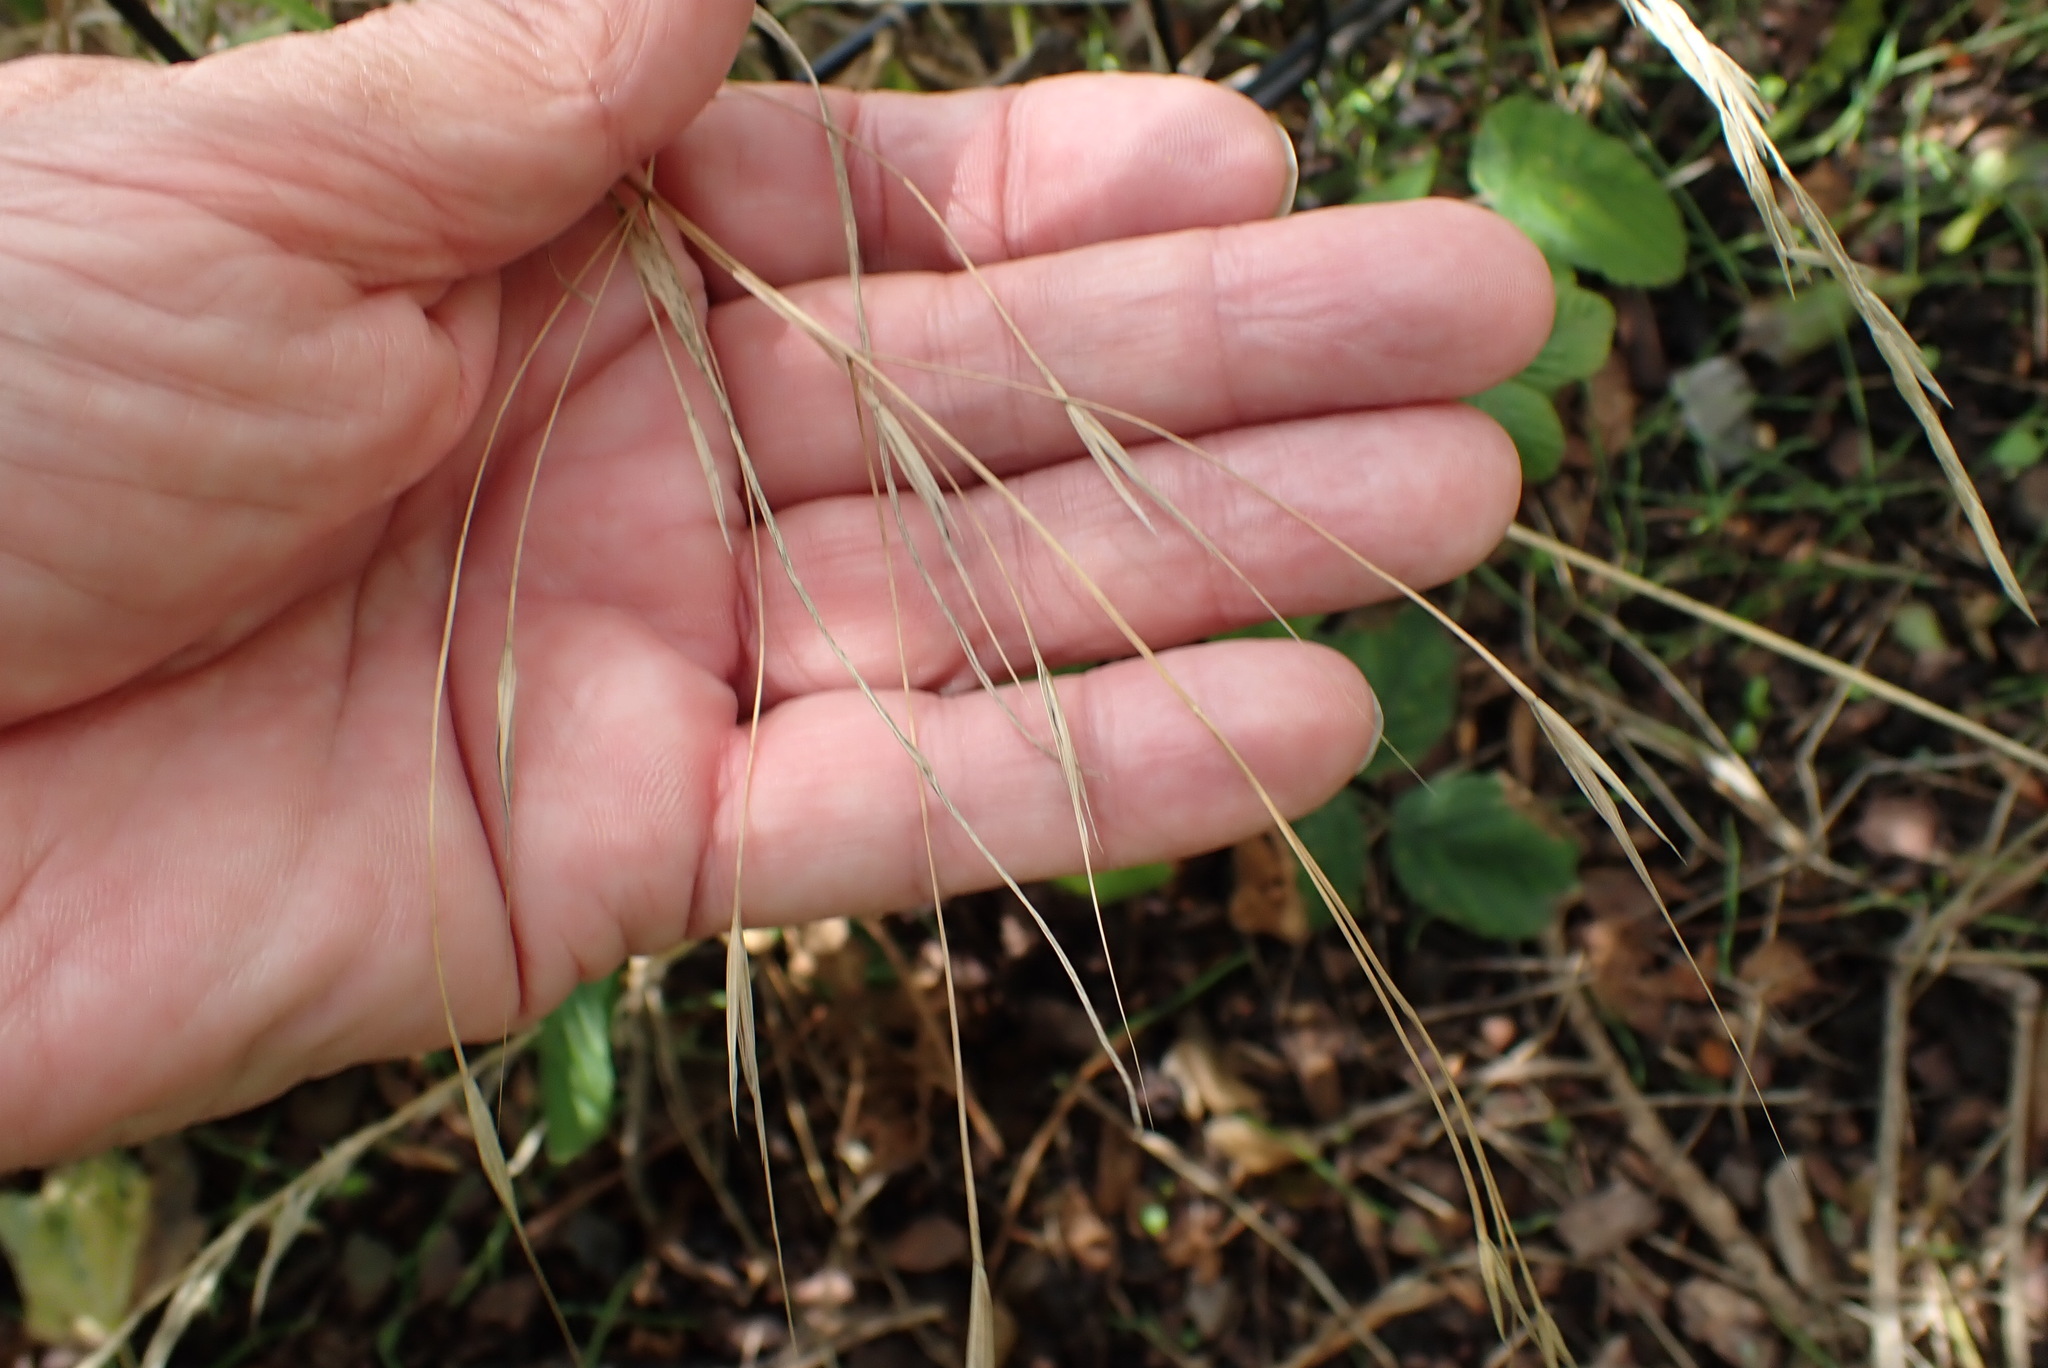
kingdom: Plantae
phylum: Tracheophyta
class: Liliopsida
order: Poales
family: Poaceae
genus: Bromus
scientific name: Bromus sterilis
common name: Poverty brome
